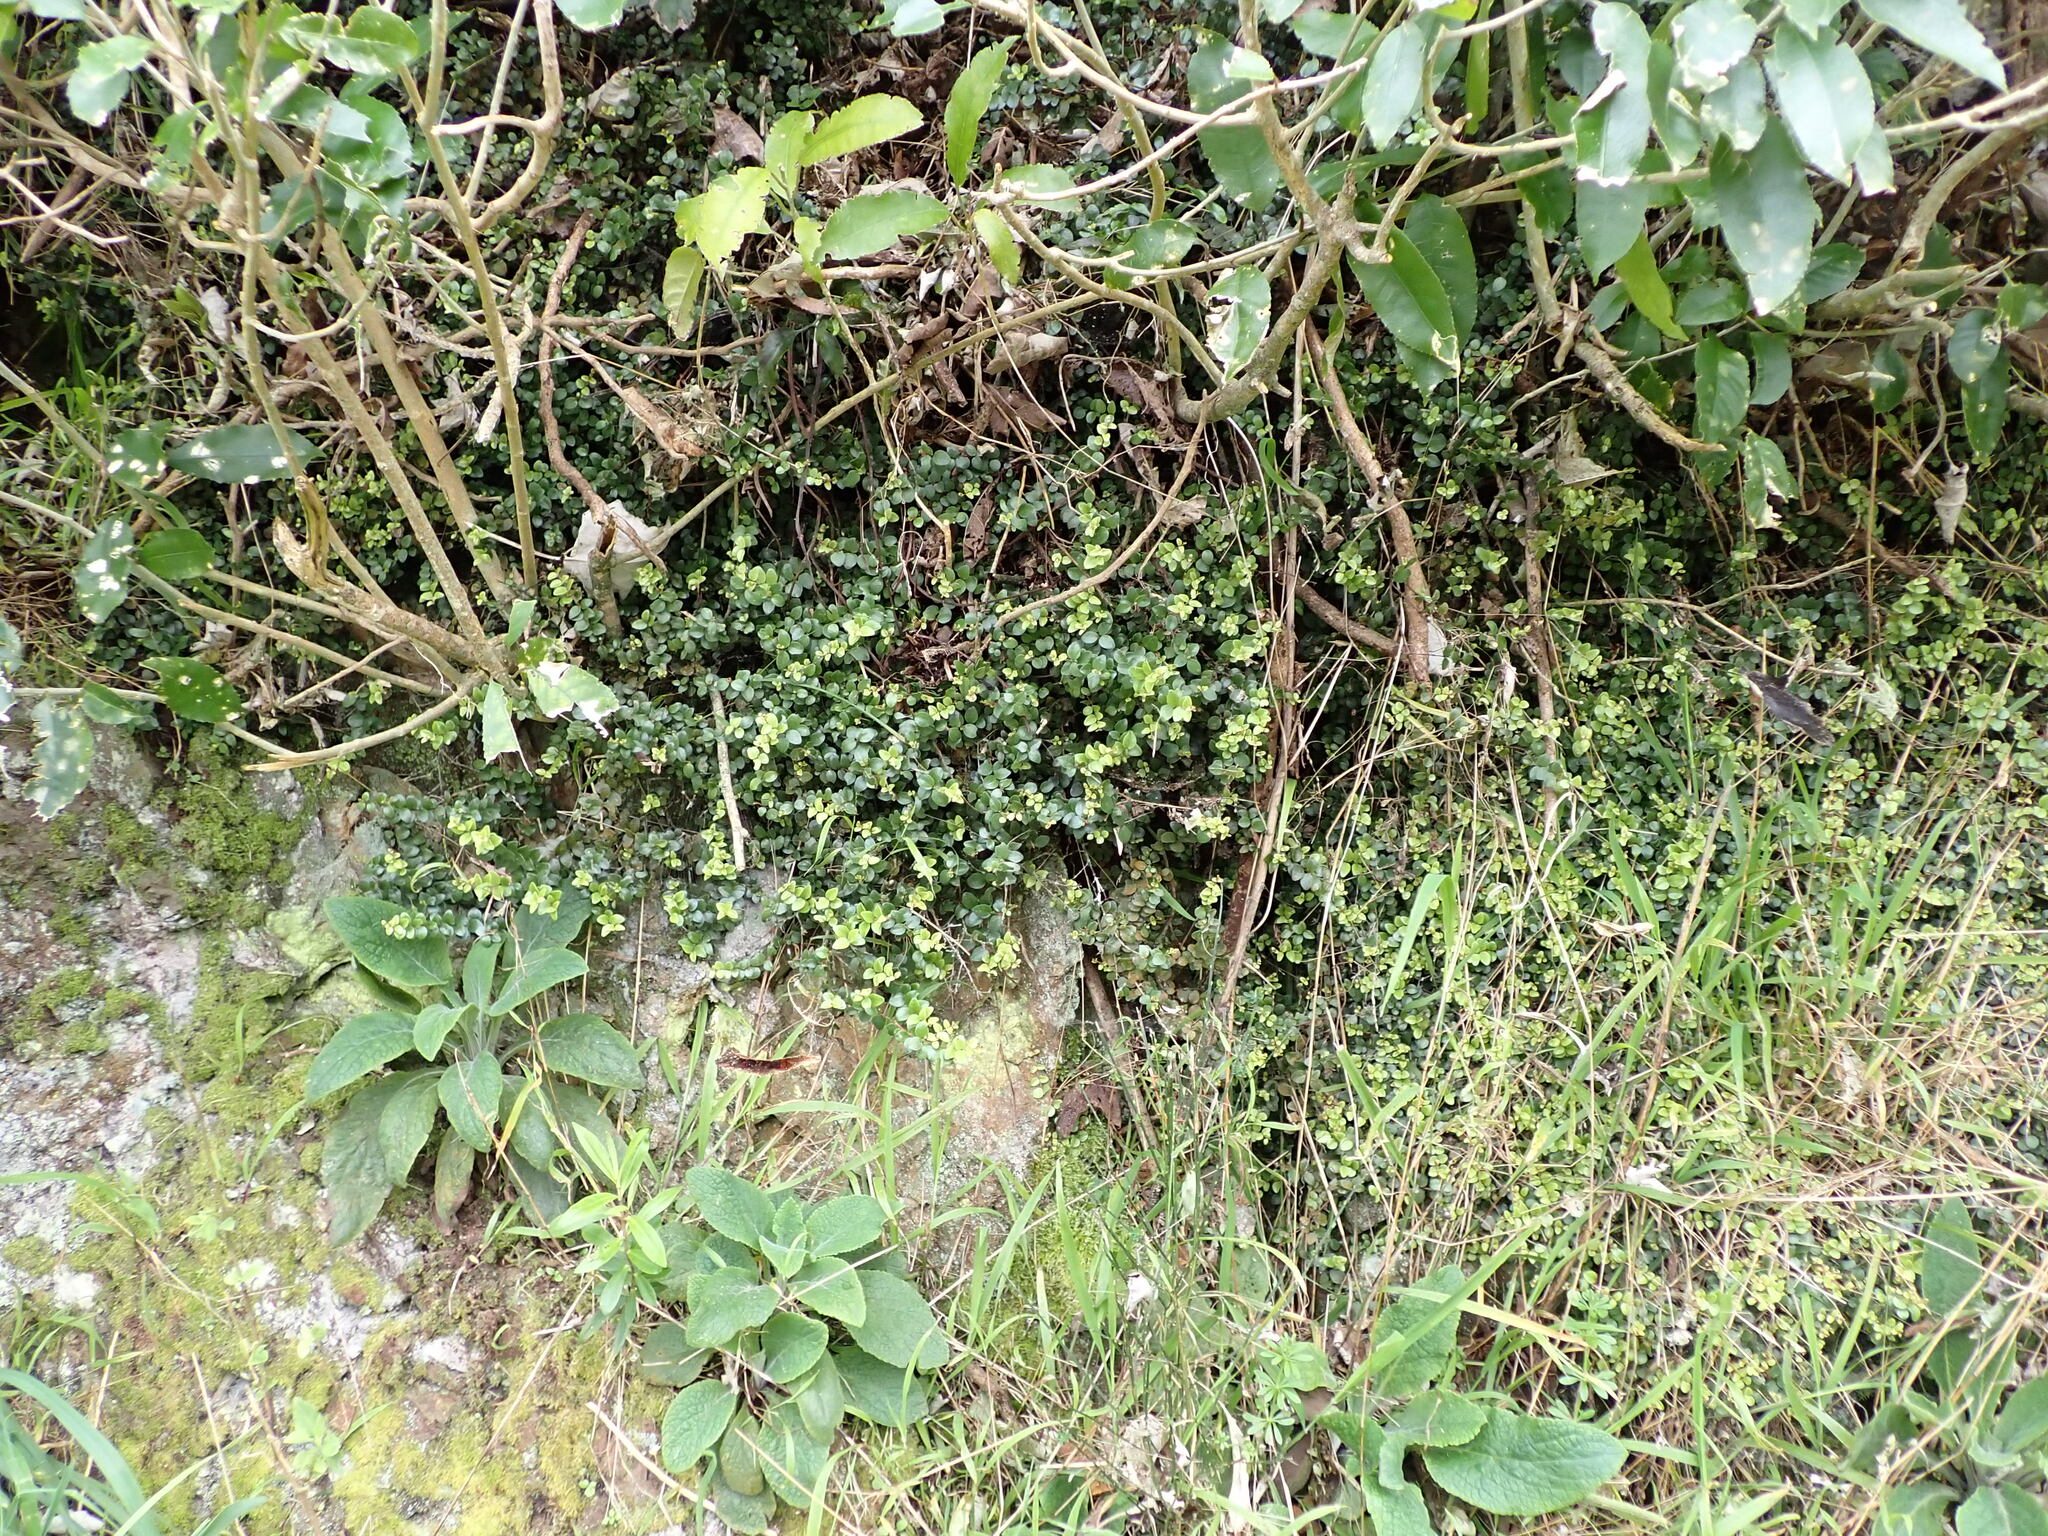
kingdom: Plantae
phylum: Tracheophyta
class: Magnoliopsida
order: Myrtales
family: Myrtaceae
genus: Metrosideros
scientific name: Metrosideros perforata
